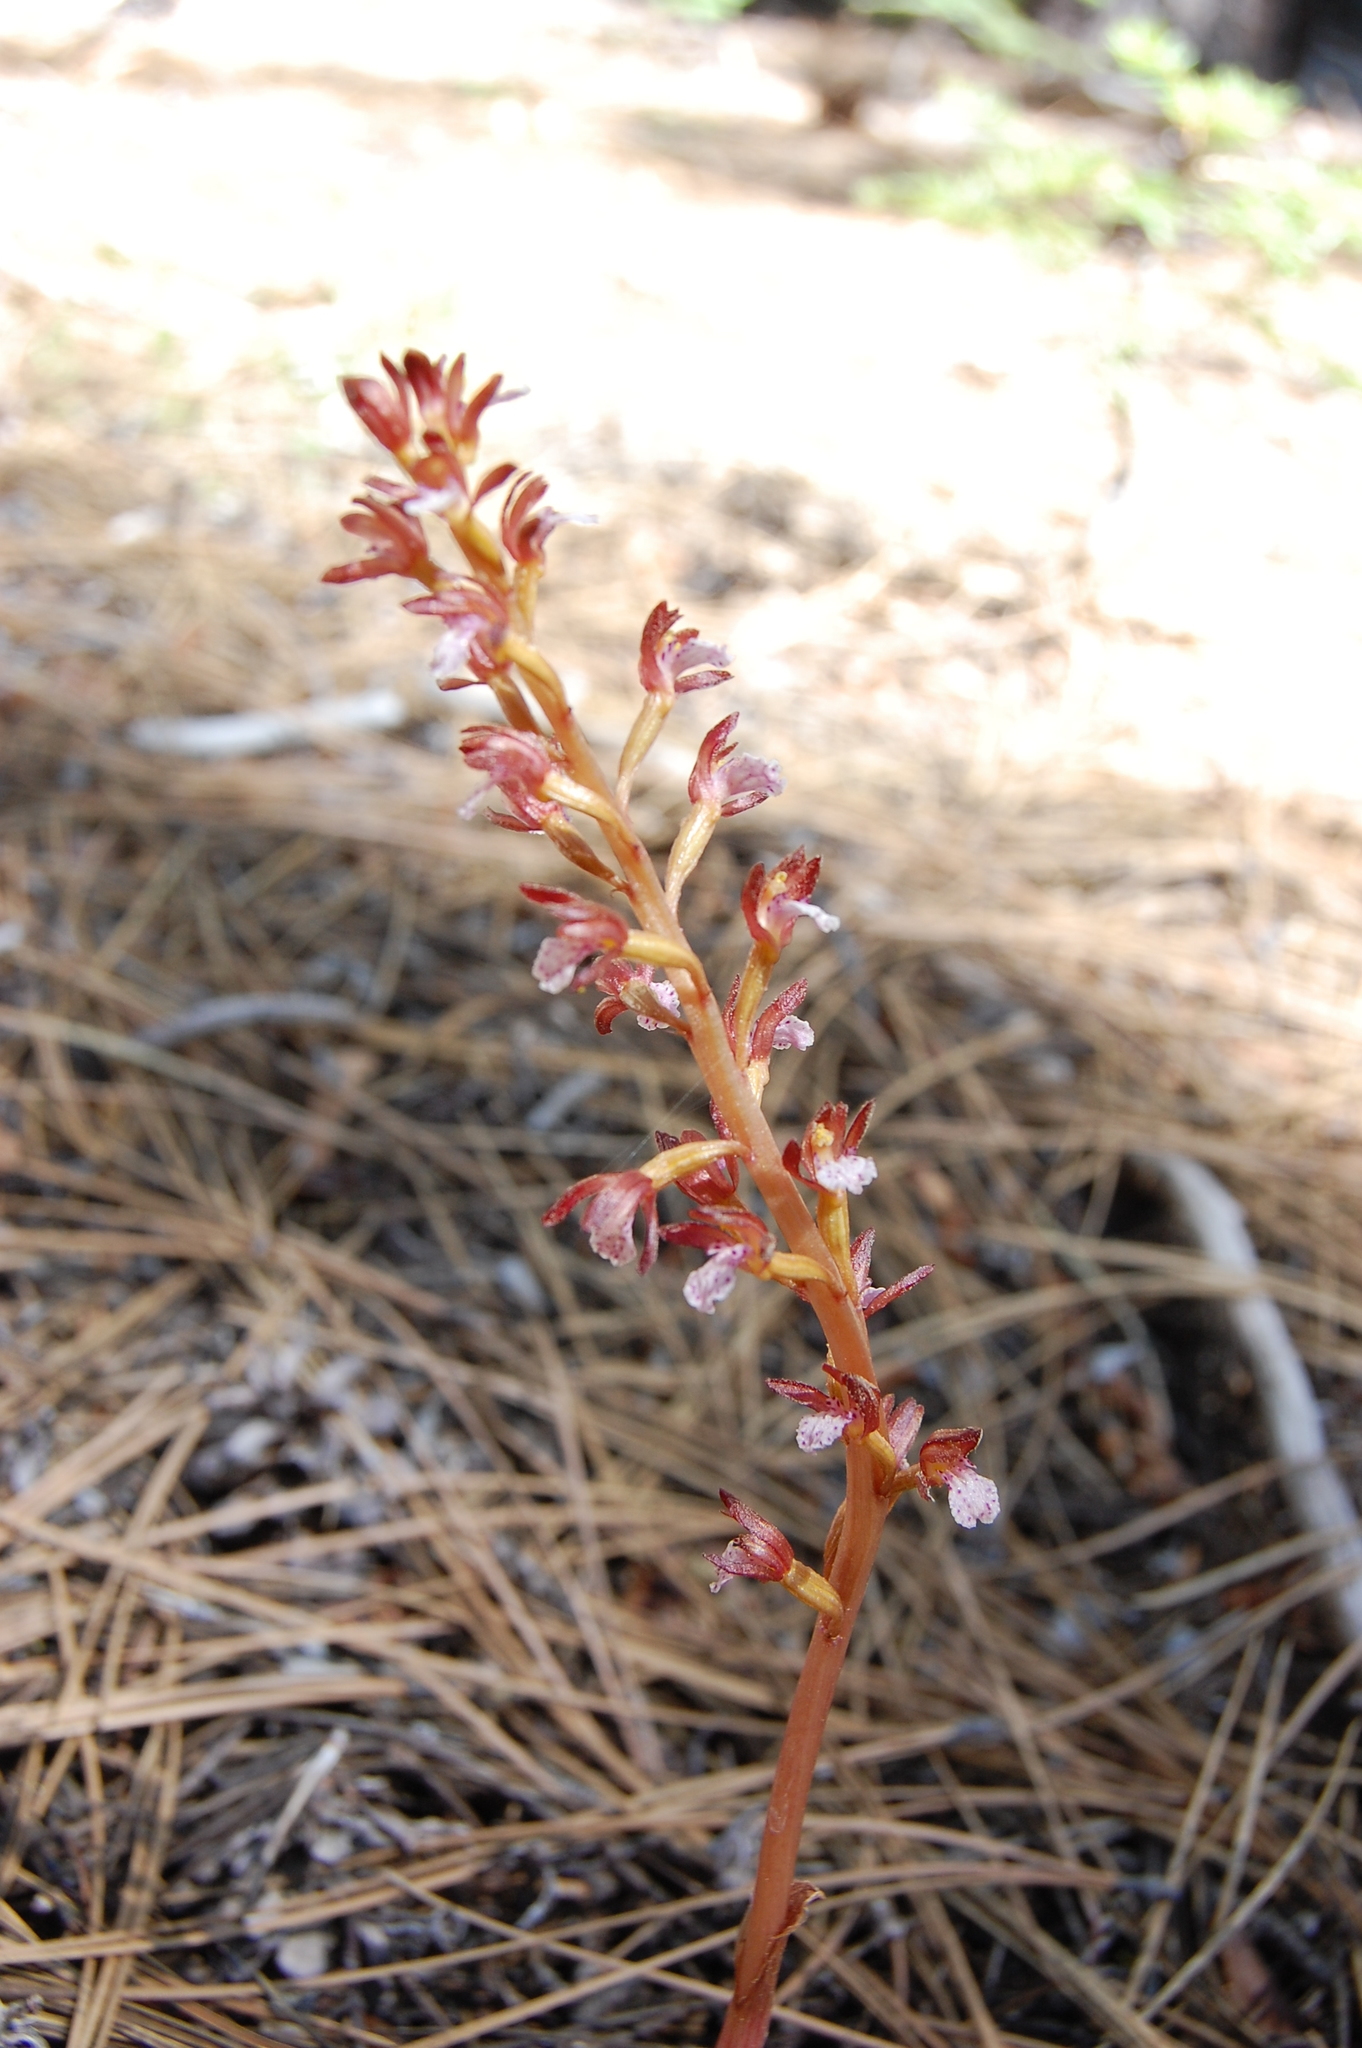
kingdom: Plantae
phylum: Tracheophyta
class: Liliopsida
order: Asparagales
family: Orchidaceae
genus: Corallorhiza
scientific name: Corallorhiza maculata
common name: Spotted coralroot
